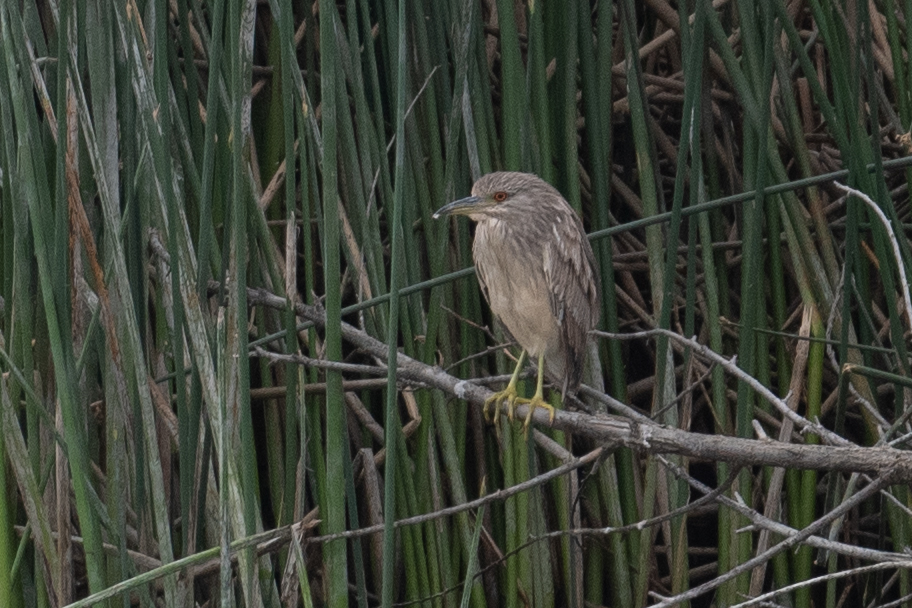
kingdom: Animalia
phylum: Chordata
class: Aves
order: Pelecaniformes
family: Ardeidae
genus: Nycticorax
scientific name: Nycticorax nycticorax
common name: Black-crowned night heron
